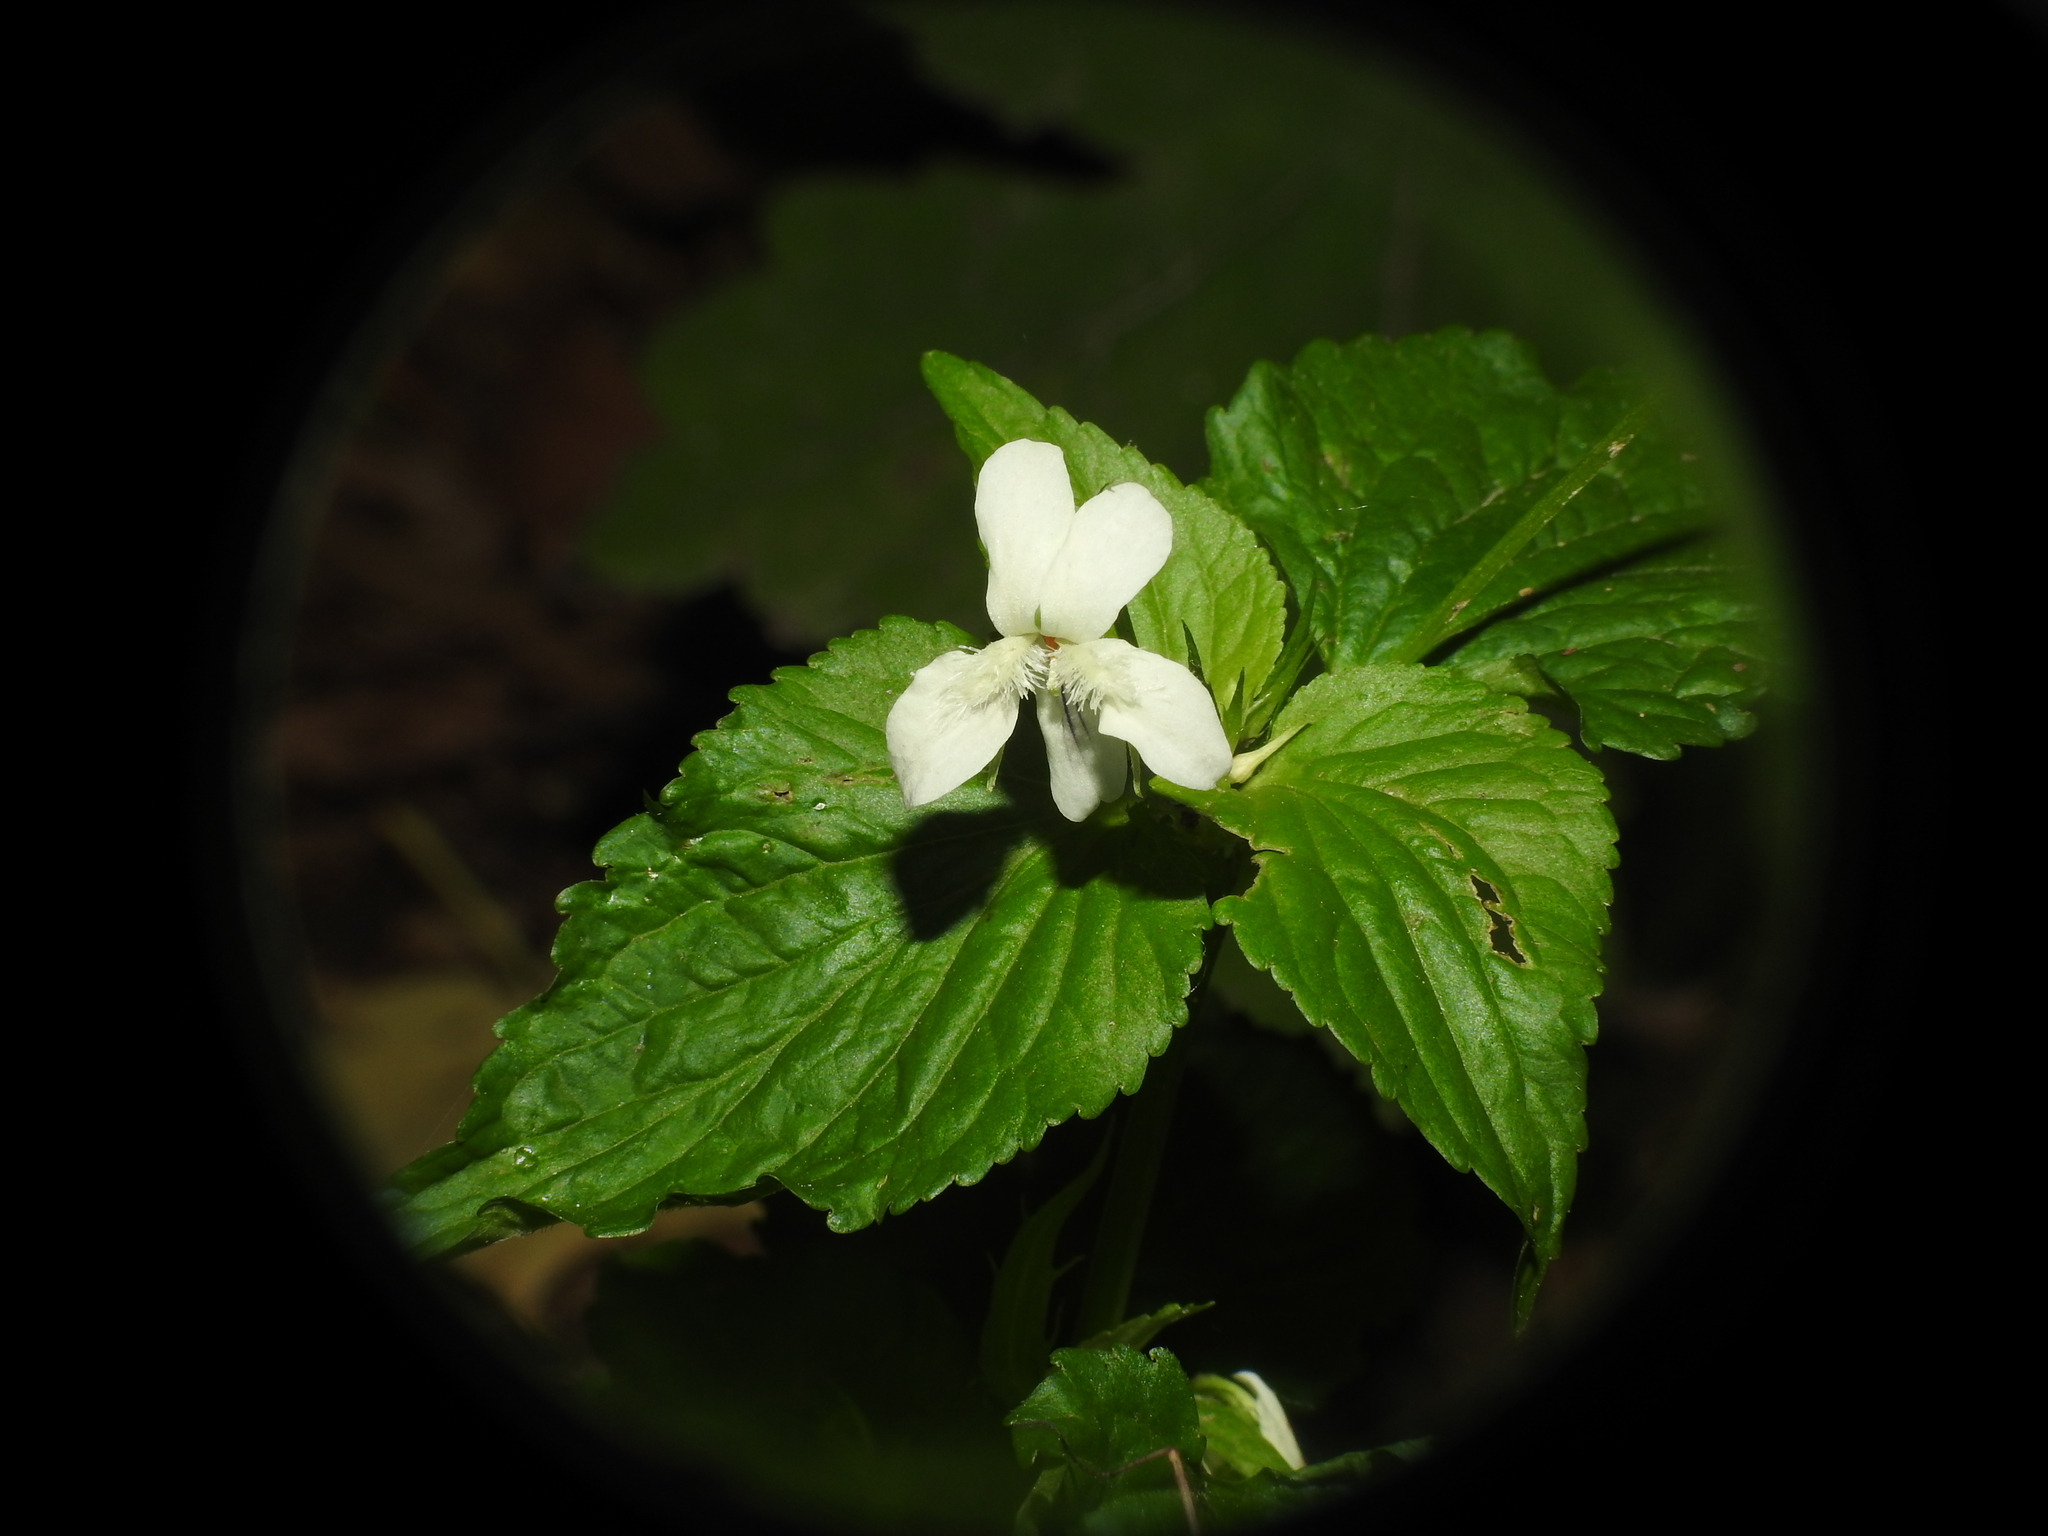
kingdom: Plantae
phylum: Tracheophyta
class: Magnoliopsida
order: Malpighiales
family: Violaceae
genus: Viola
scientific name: Viola striata
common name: Cream violet
